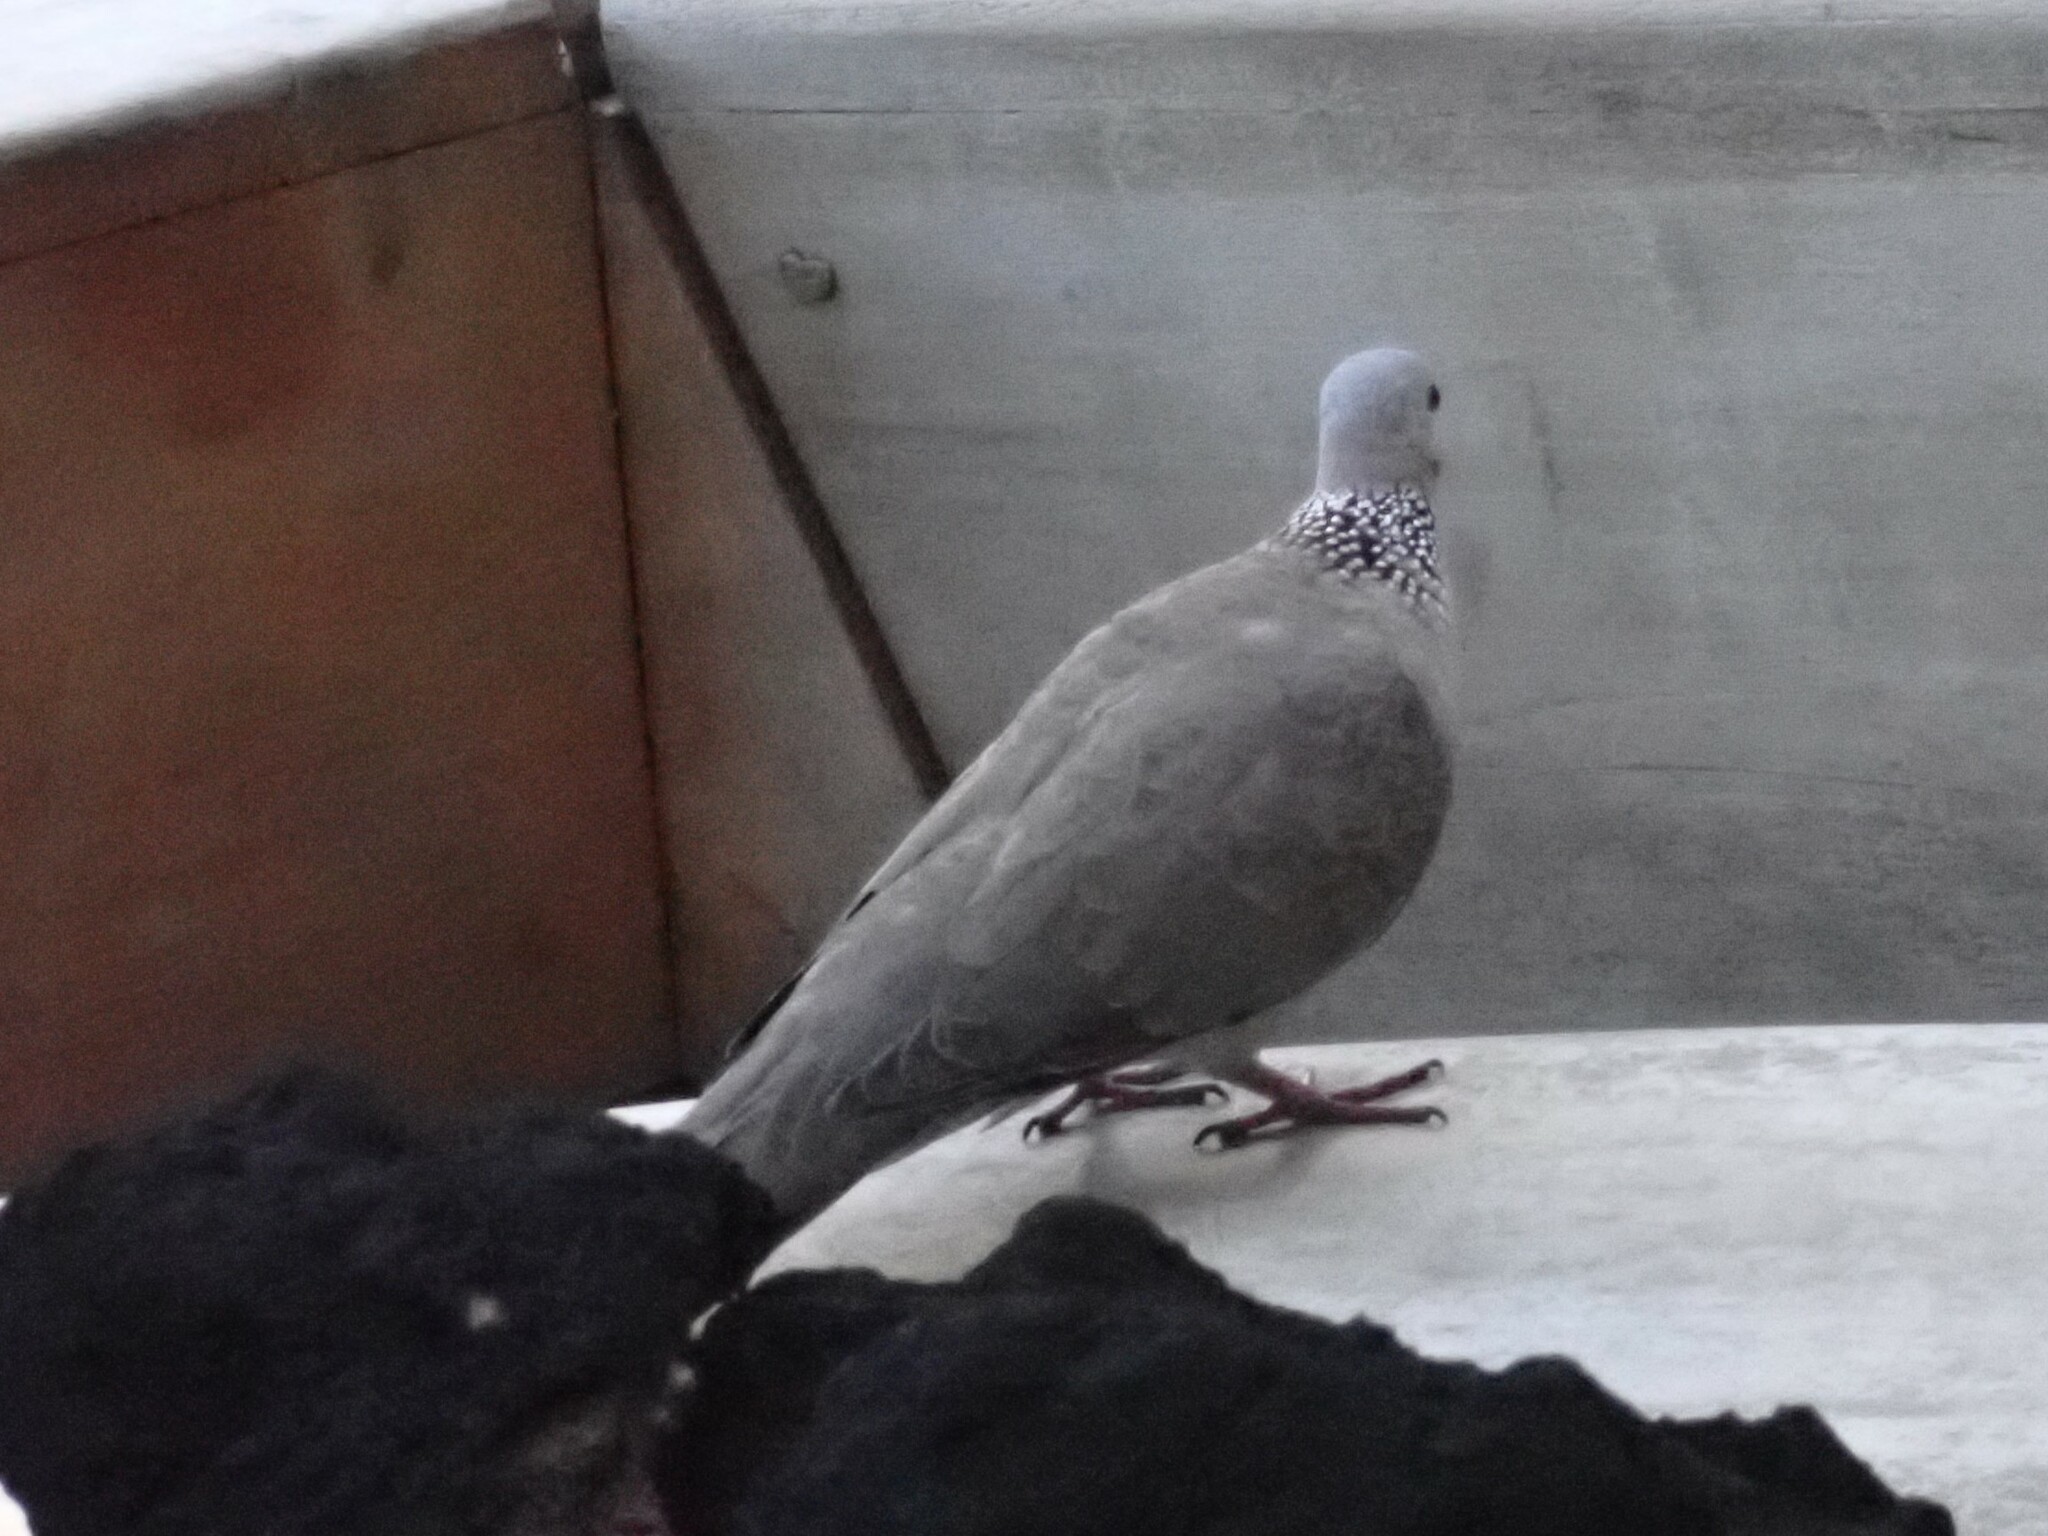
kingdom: Animalia
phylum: Chordata
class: Aves
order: Columbiformes
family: Columbidae
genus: Spilopelia
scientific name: Spilopelia chinensis
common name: Spotted dove
